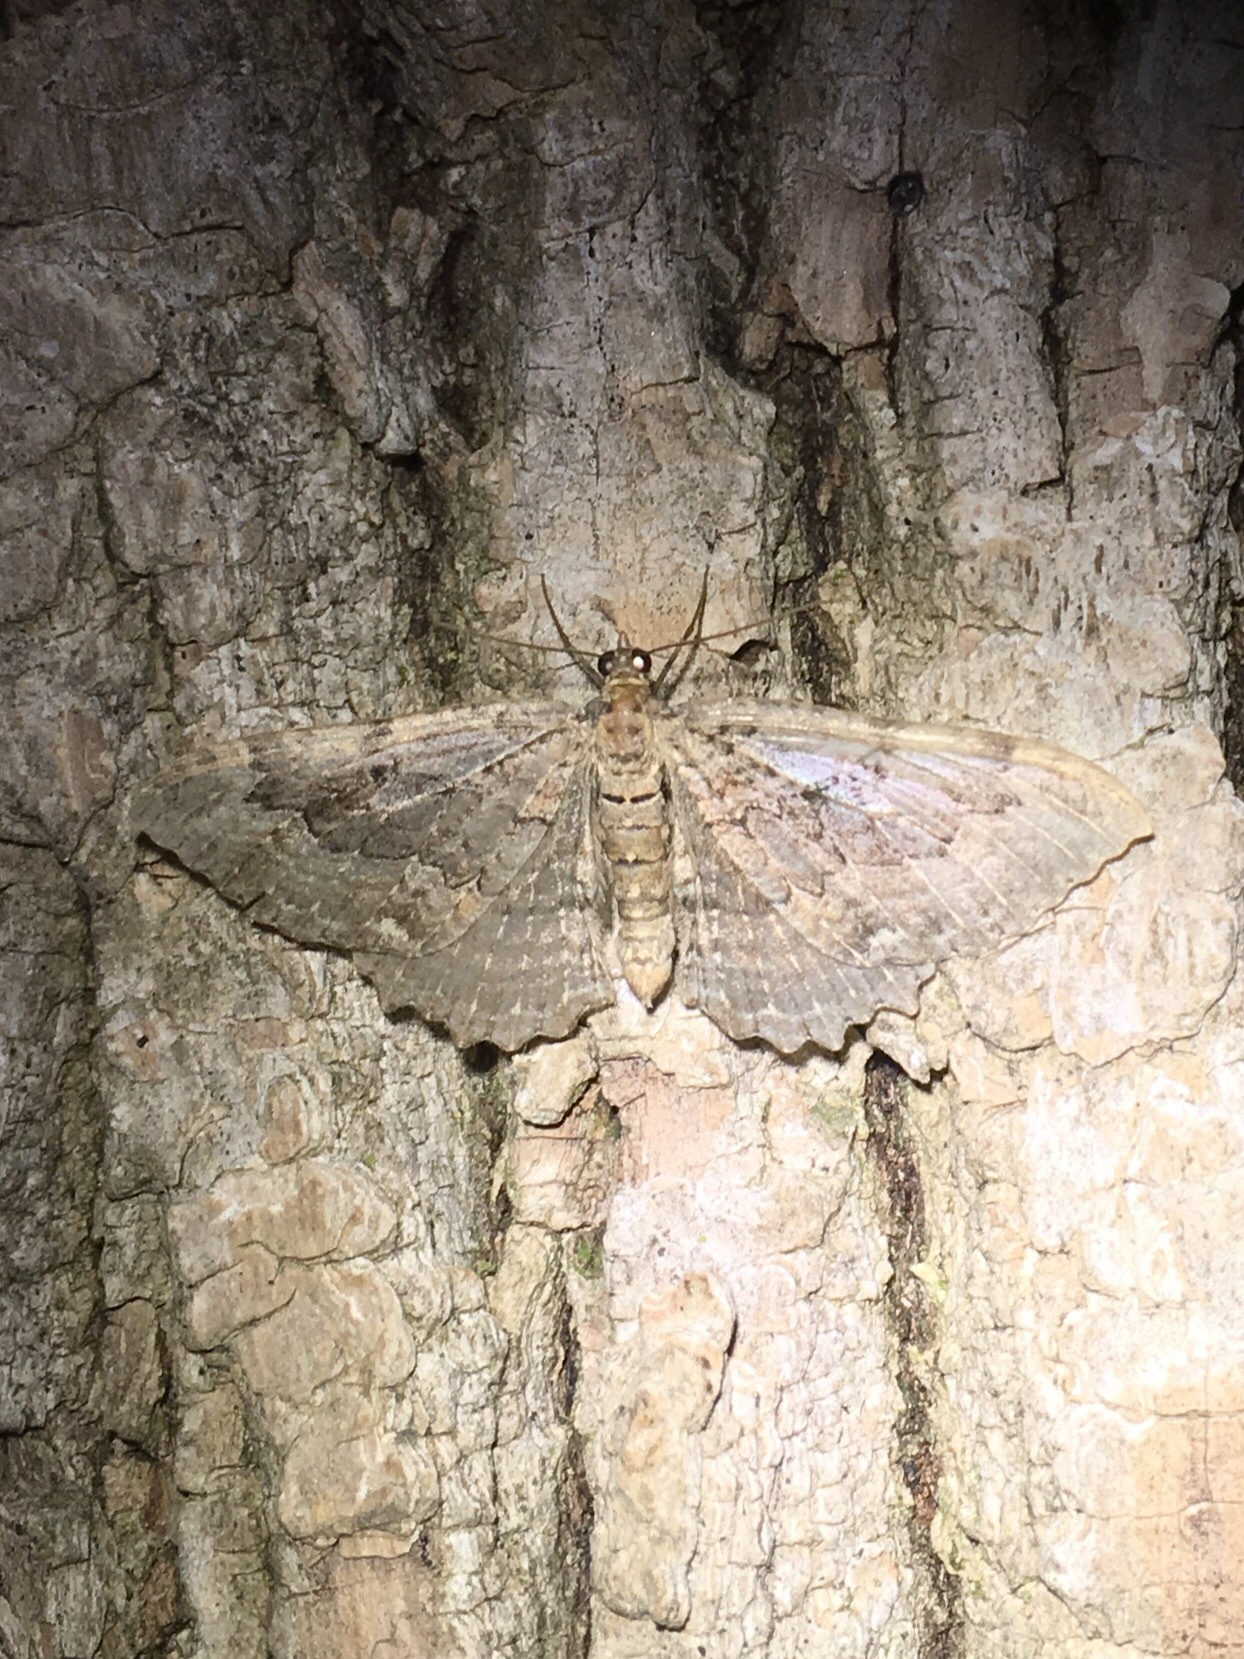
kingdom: Animalia
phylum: Arthropoda
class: Insecta
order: Lepidoptera
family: Geometridae
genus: Rheumaptera
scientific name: Rheumaptera
